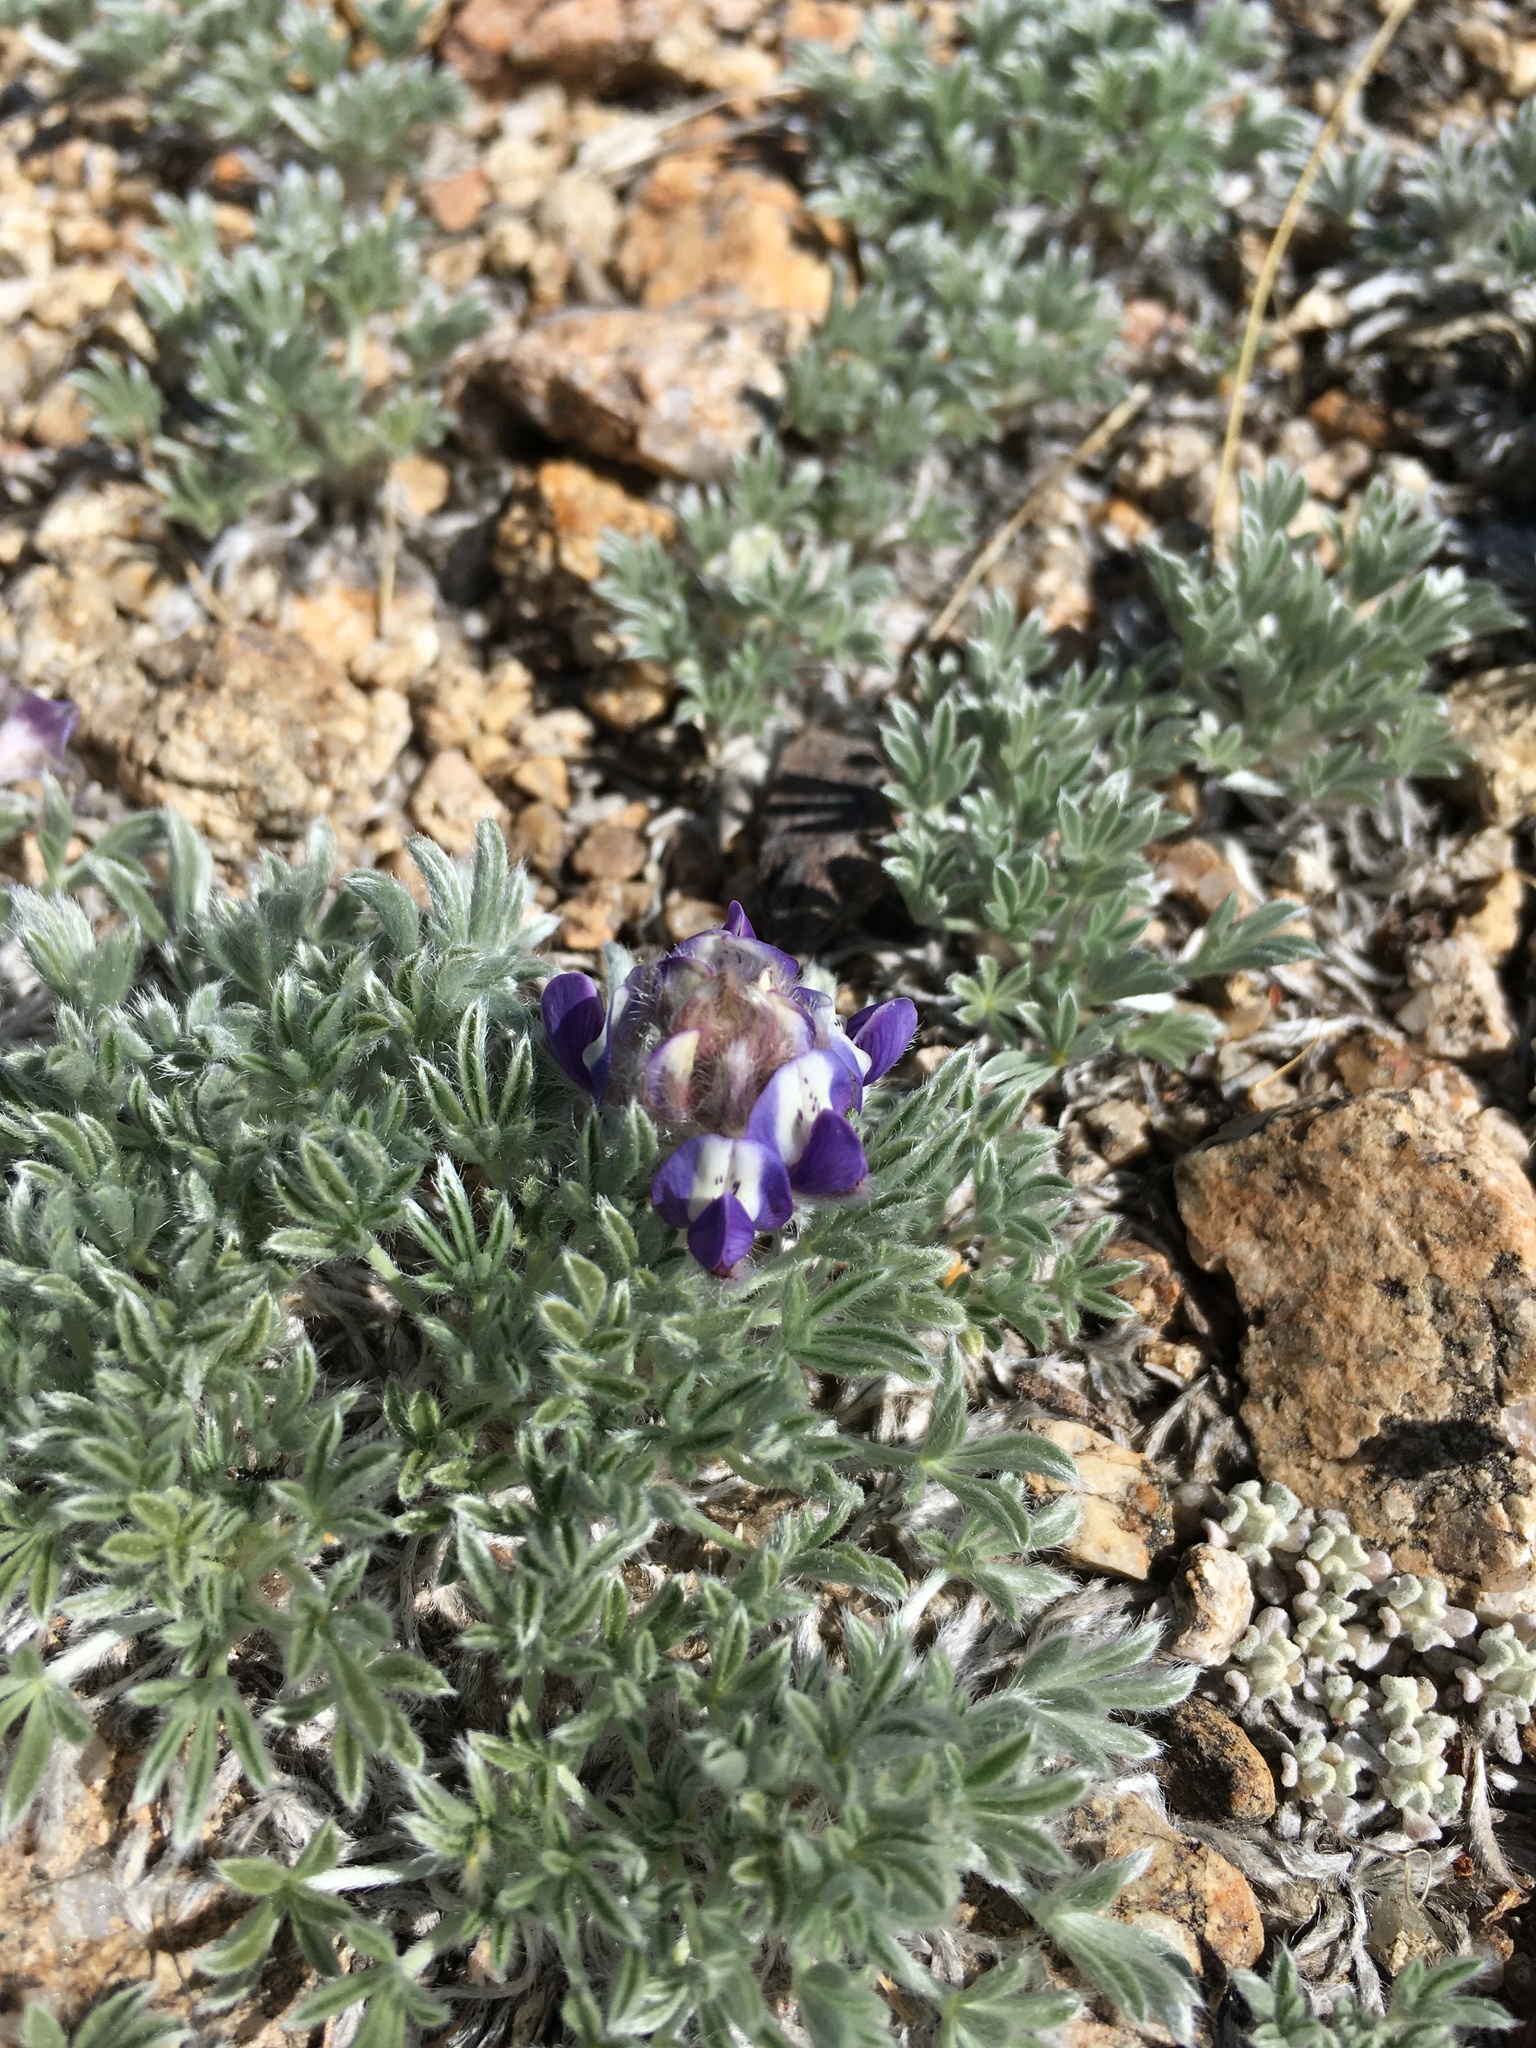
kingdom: Plantae
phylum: Tracheophyta
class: Magnoliopsida
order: Fabales
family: Fabaceae
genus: Lupinus
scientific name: Lupinus breweri
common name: Brewer's lupine
